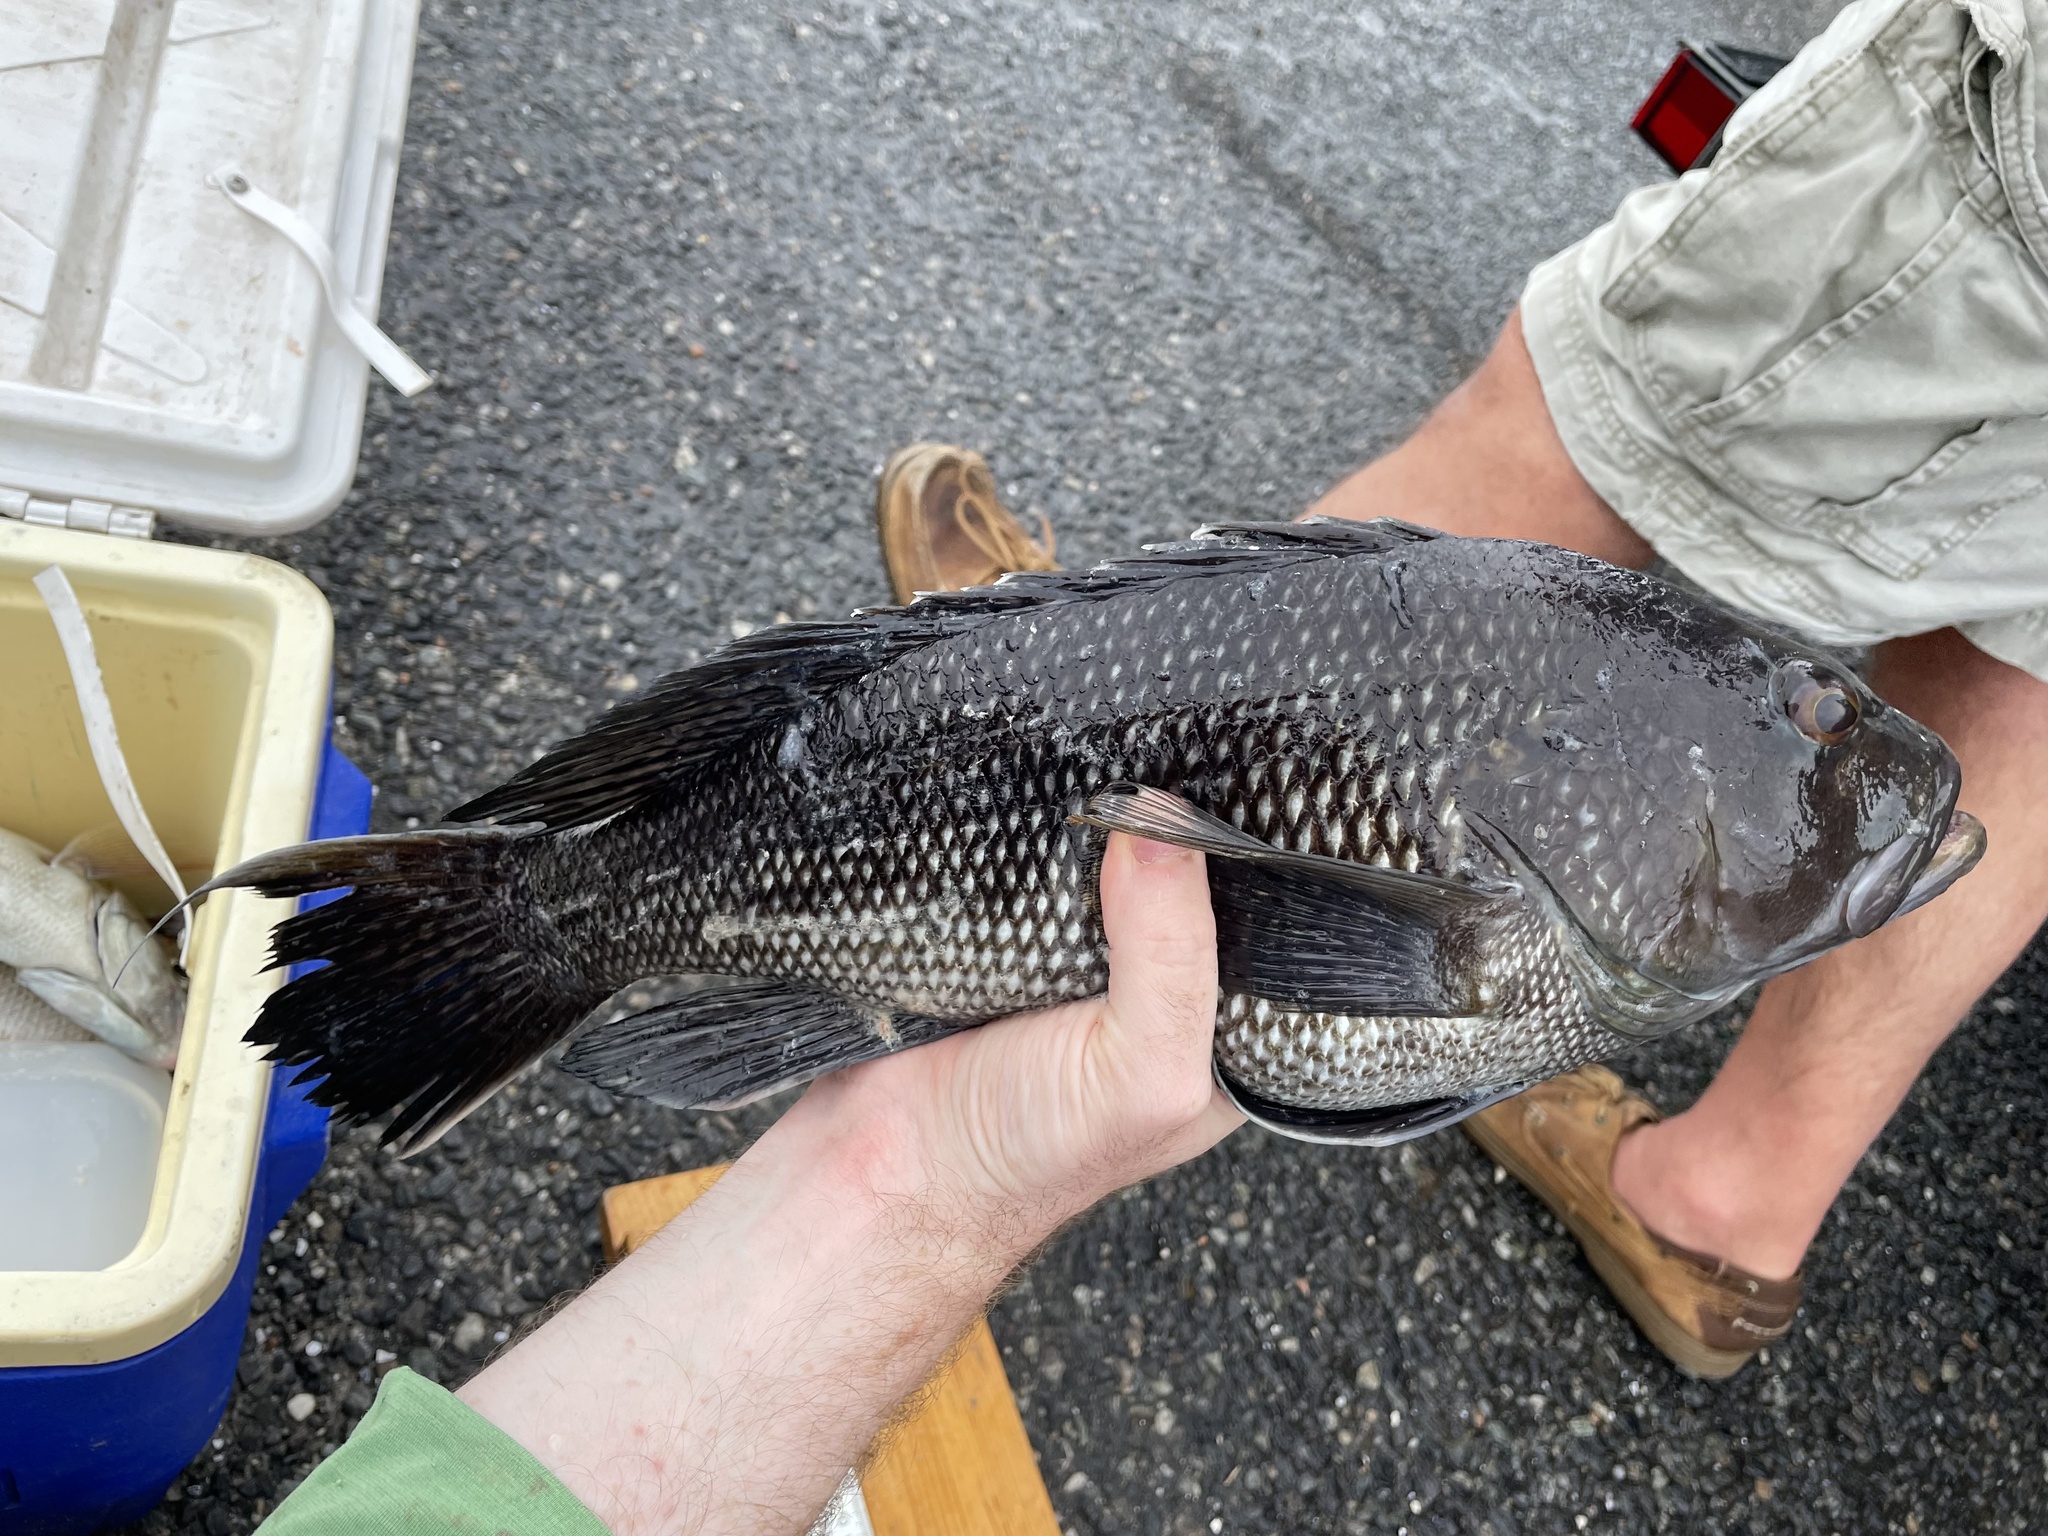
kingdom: Animalia
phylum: Chordata
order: Perciformes
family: Serranidae
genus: Centropristis
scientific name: Centropristis striata
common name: Black sea bass
